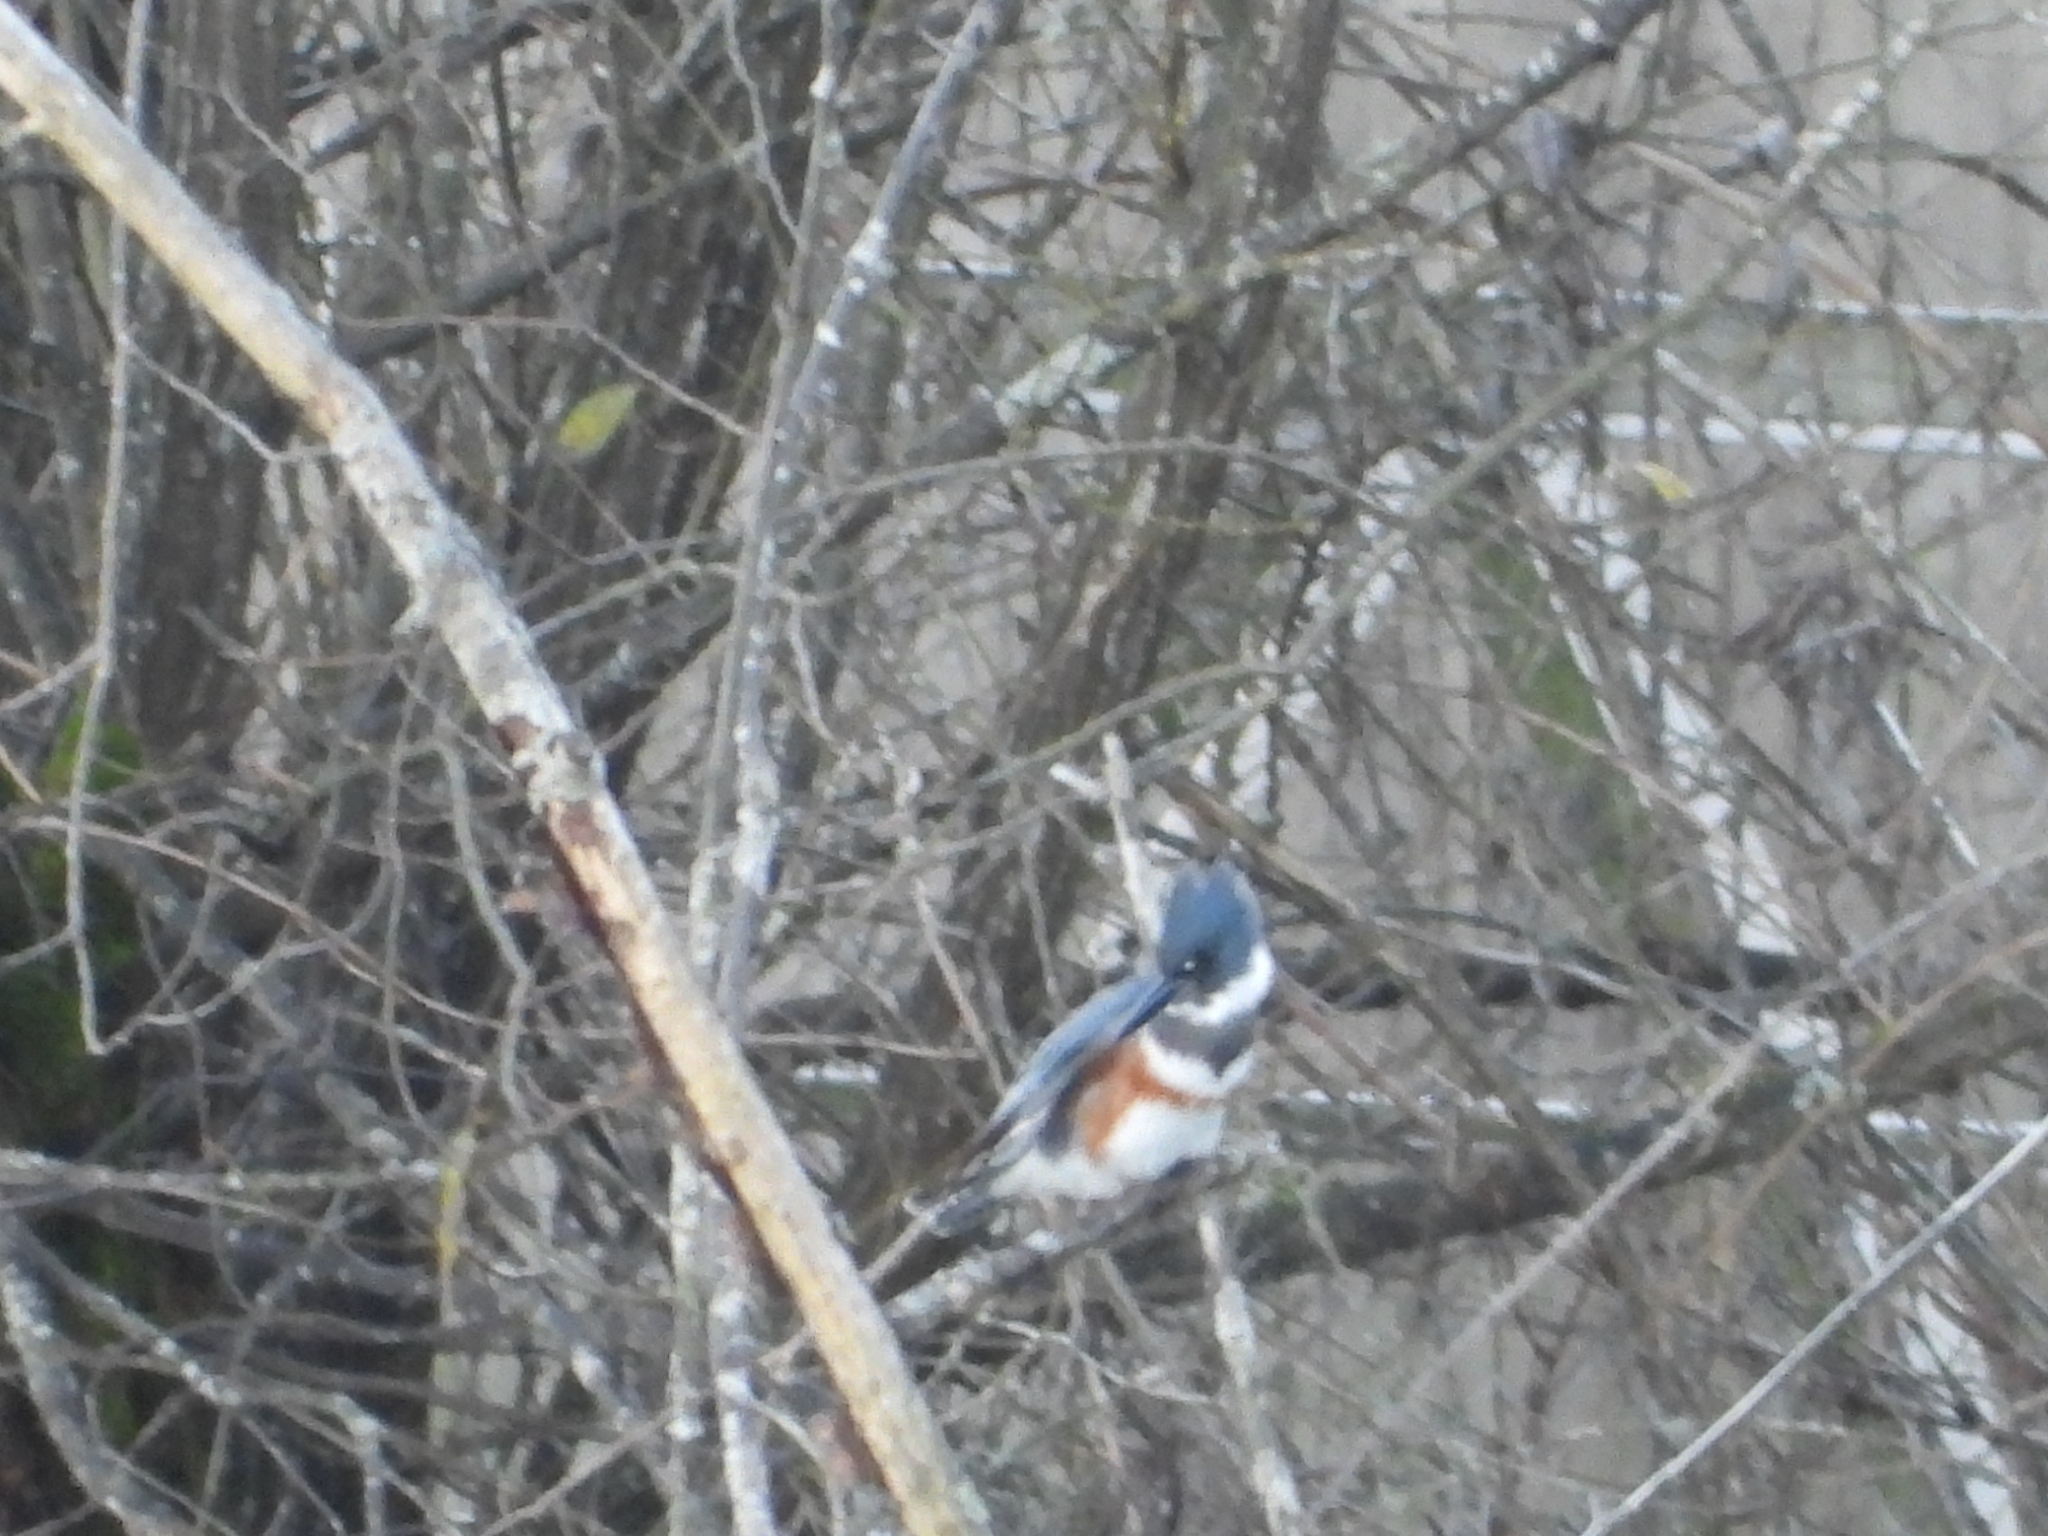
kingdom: Animalia
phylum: Chordata
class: Aves
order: Coraciiformes
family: Alcedinidae
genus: Megaceryle
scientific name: Megaceryle alcyon
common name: Belted kingfisher
